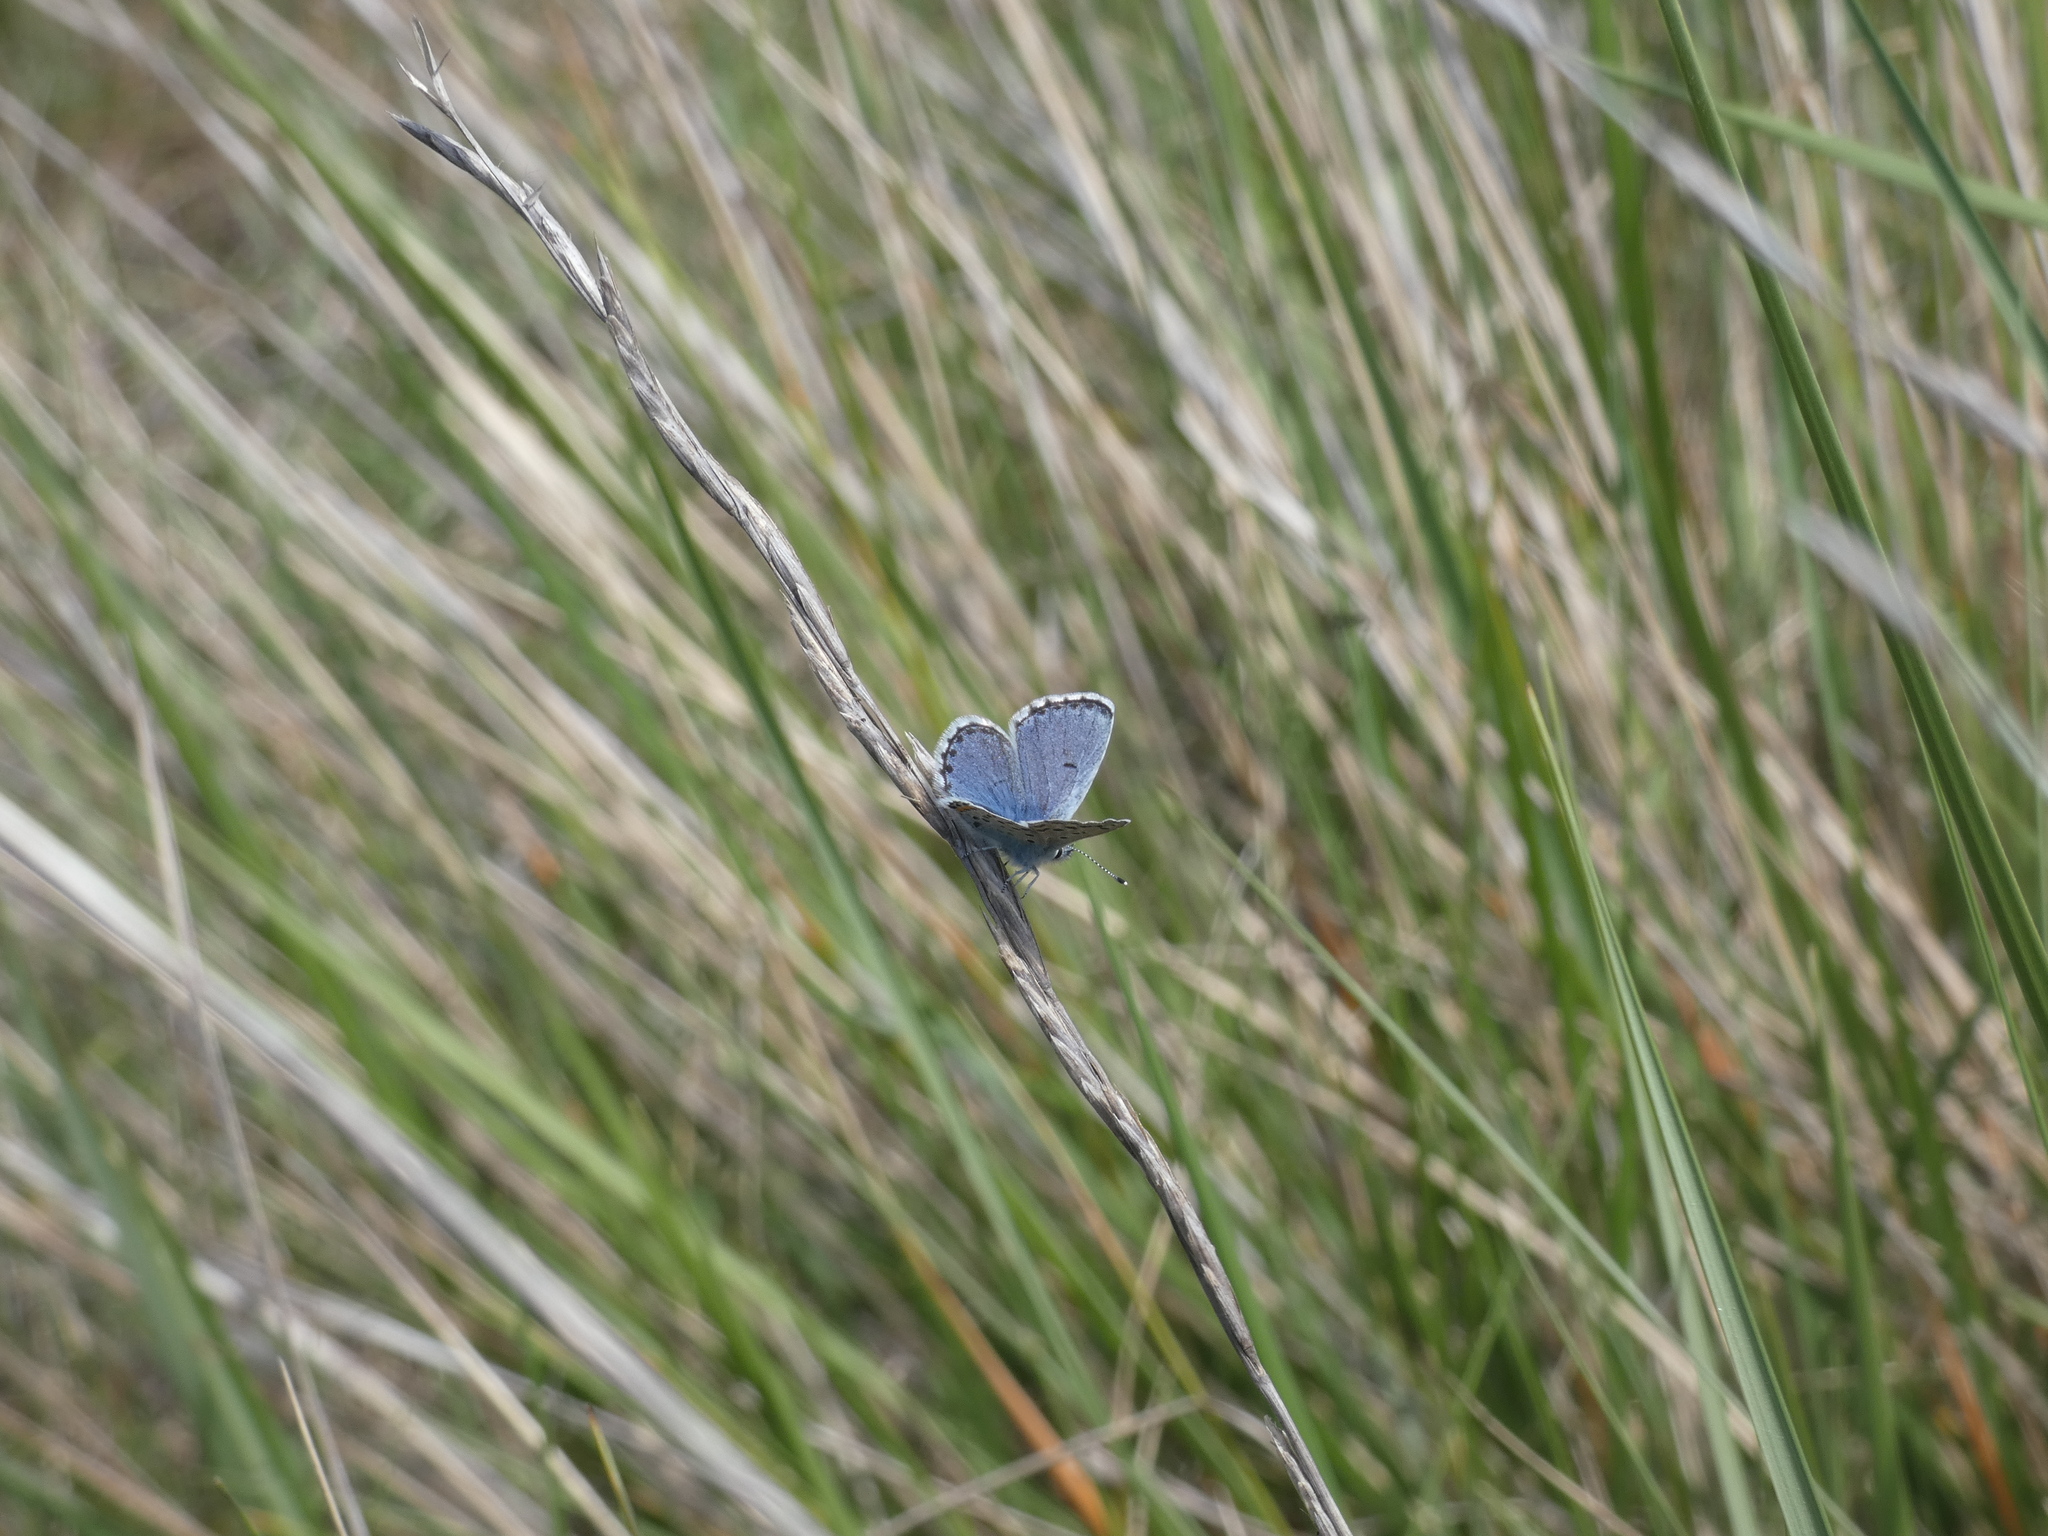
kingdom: Animalia
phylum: Arthropoda
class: Insecta
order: Lepidoptera
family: Lycaenidae
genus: Pseudophilotes
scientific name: Pseudophilotes baton
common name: Baton blue
